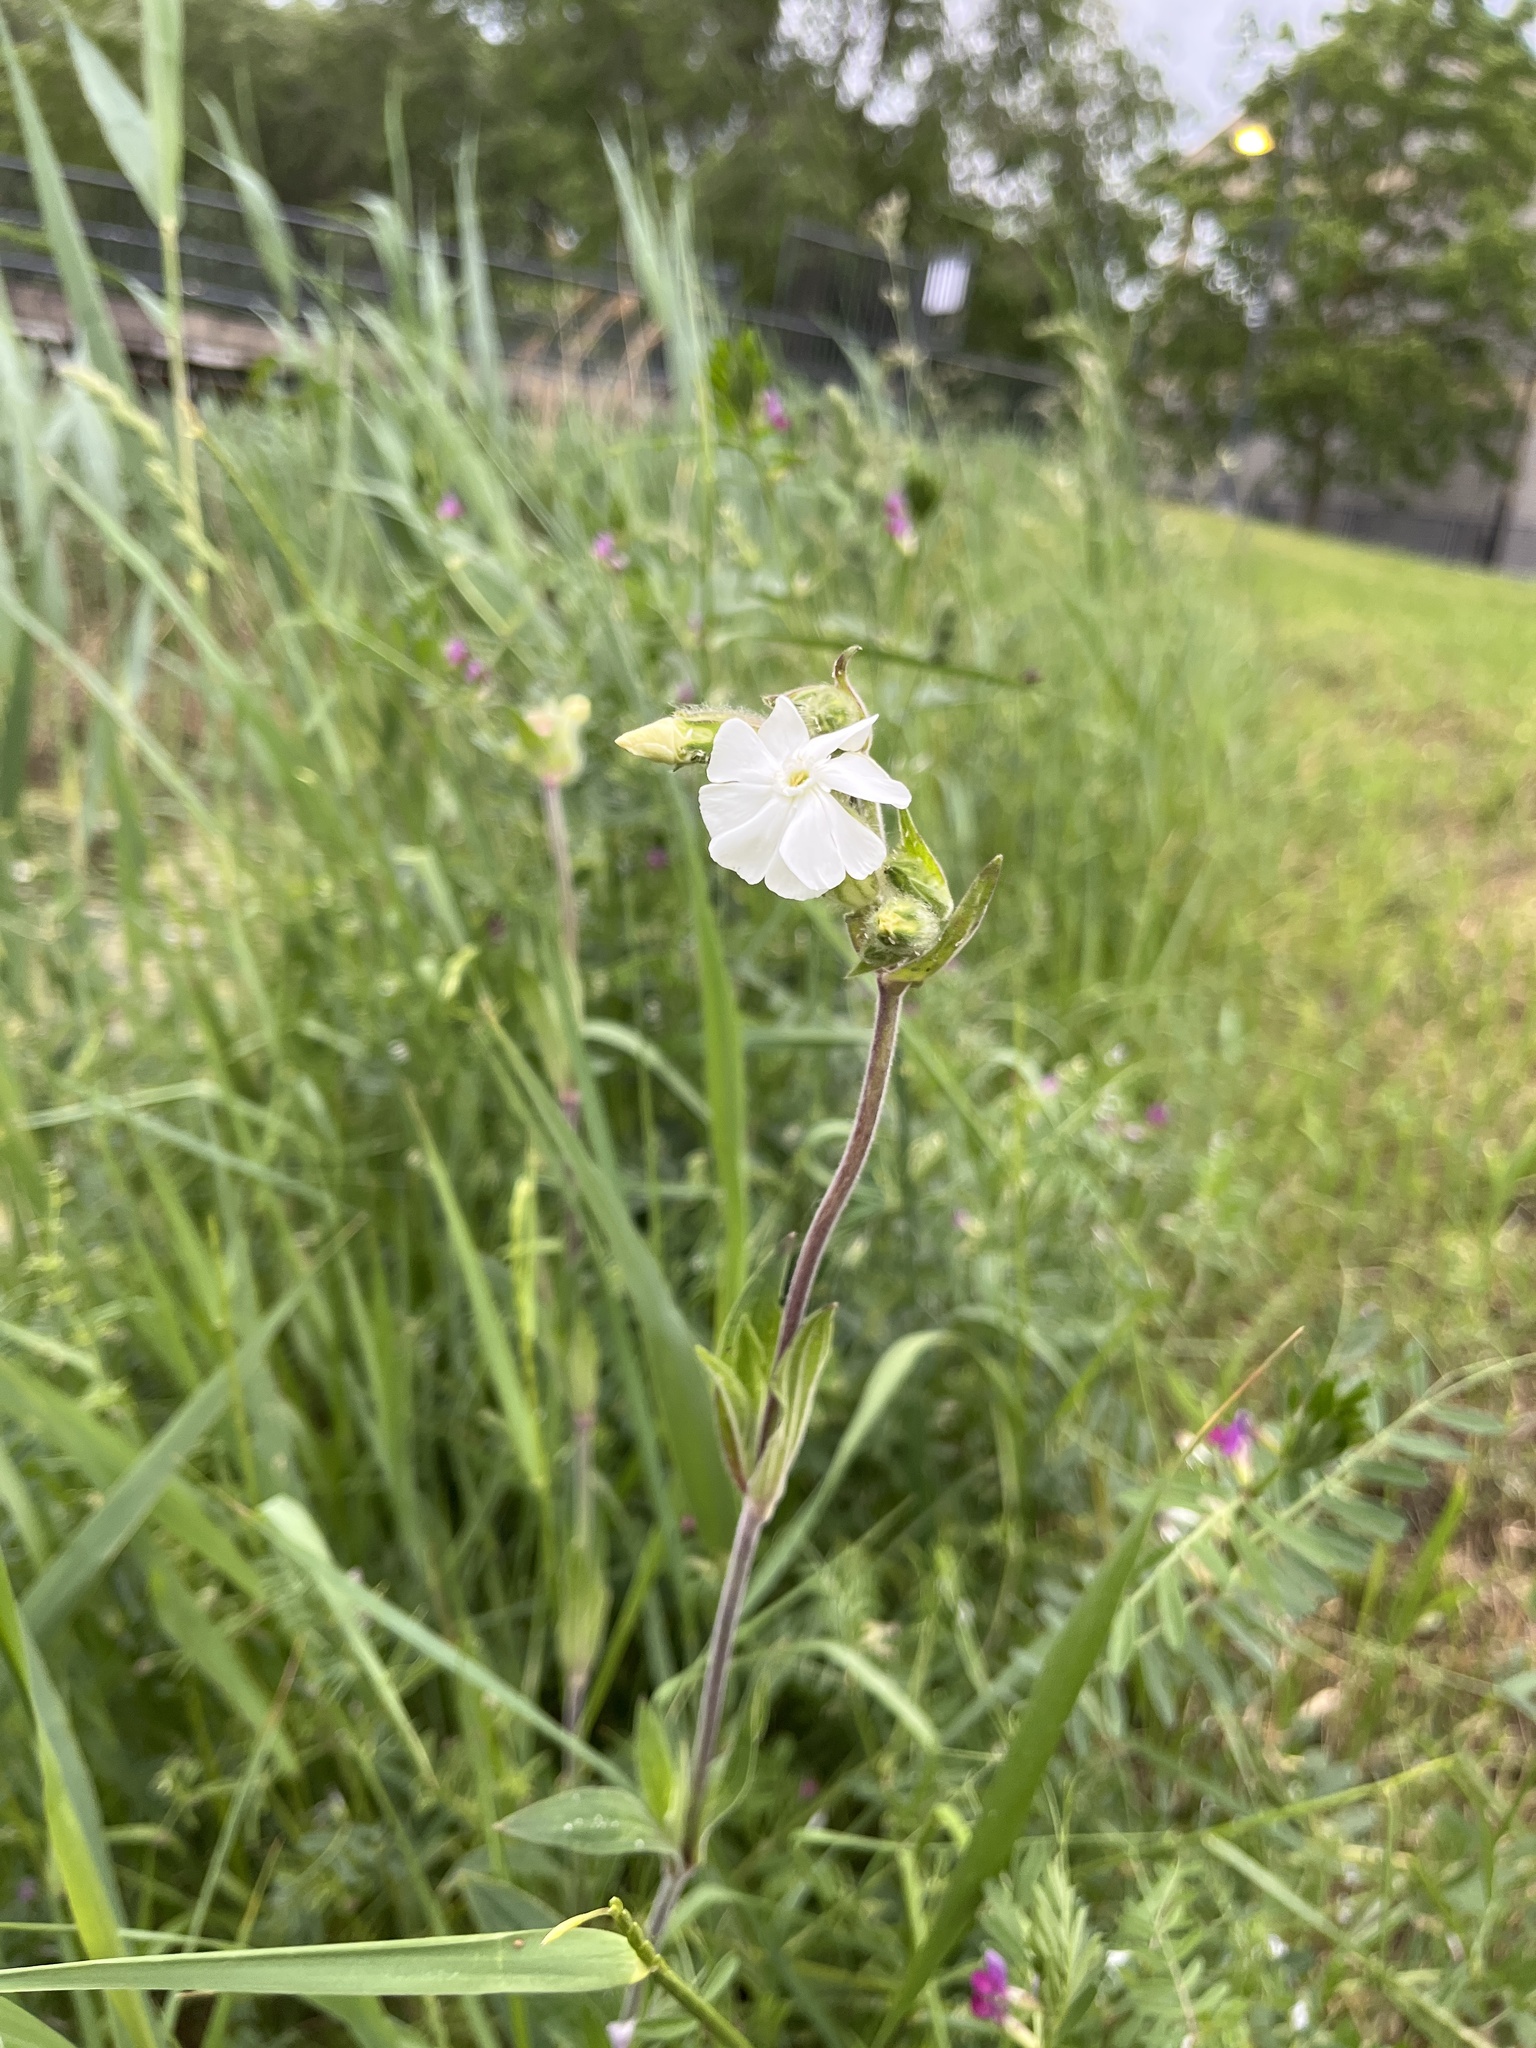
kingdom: Plantae
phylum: Tracheophyta
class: Magnoliopsida
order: Caryophyllales
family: Caryophyllaceae
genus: Silene
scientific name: Silene latifolia
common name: White campion
